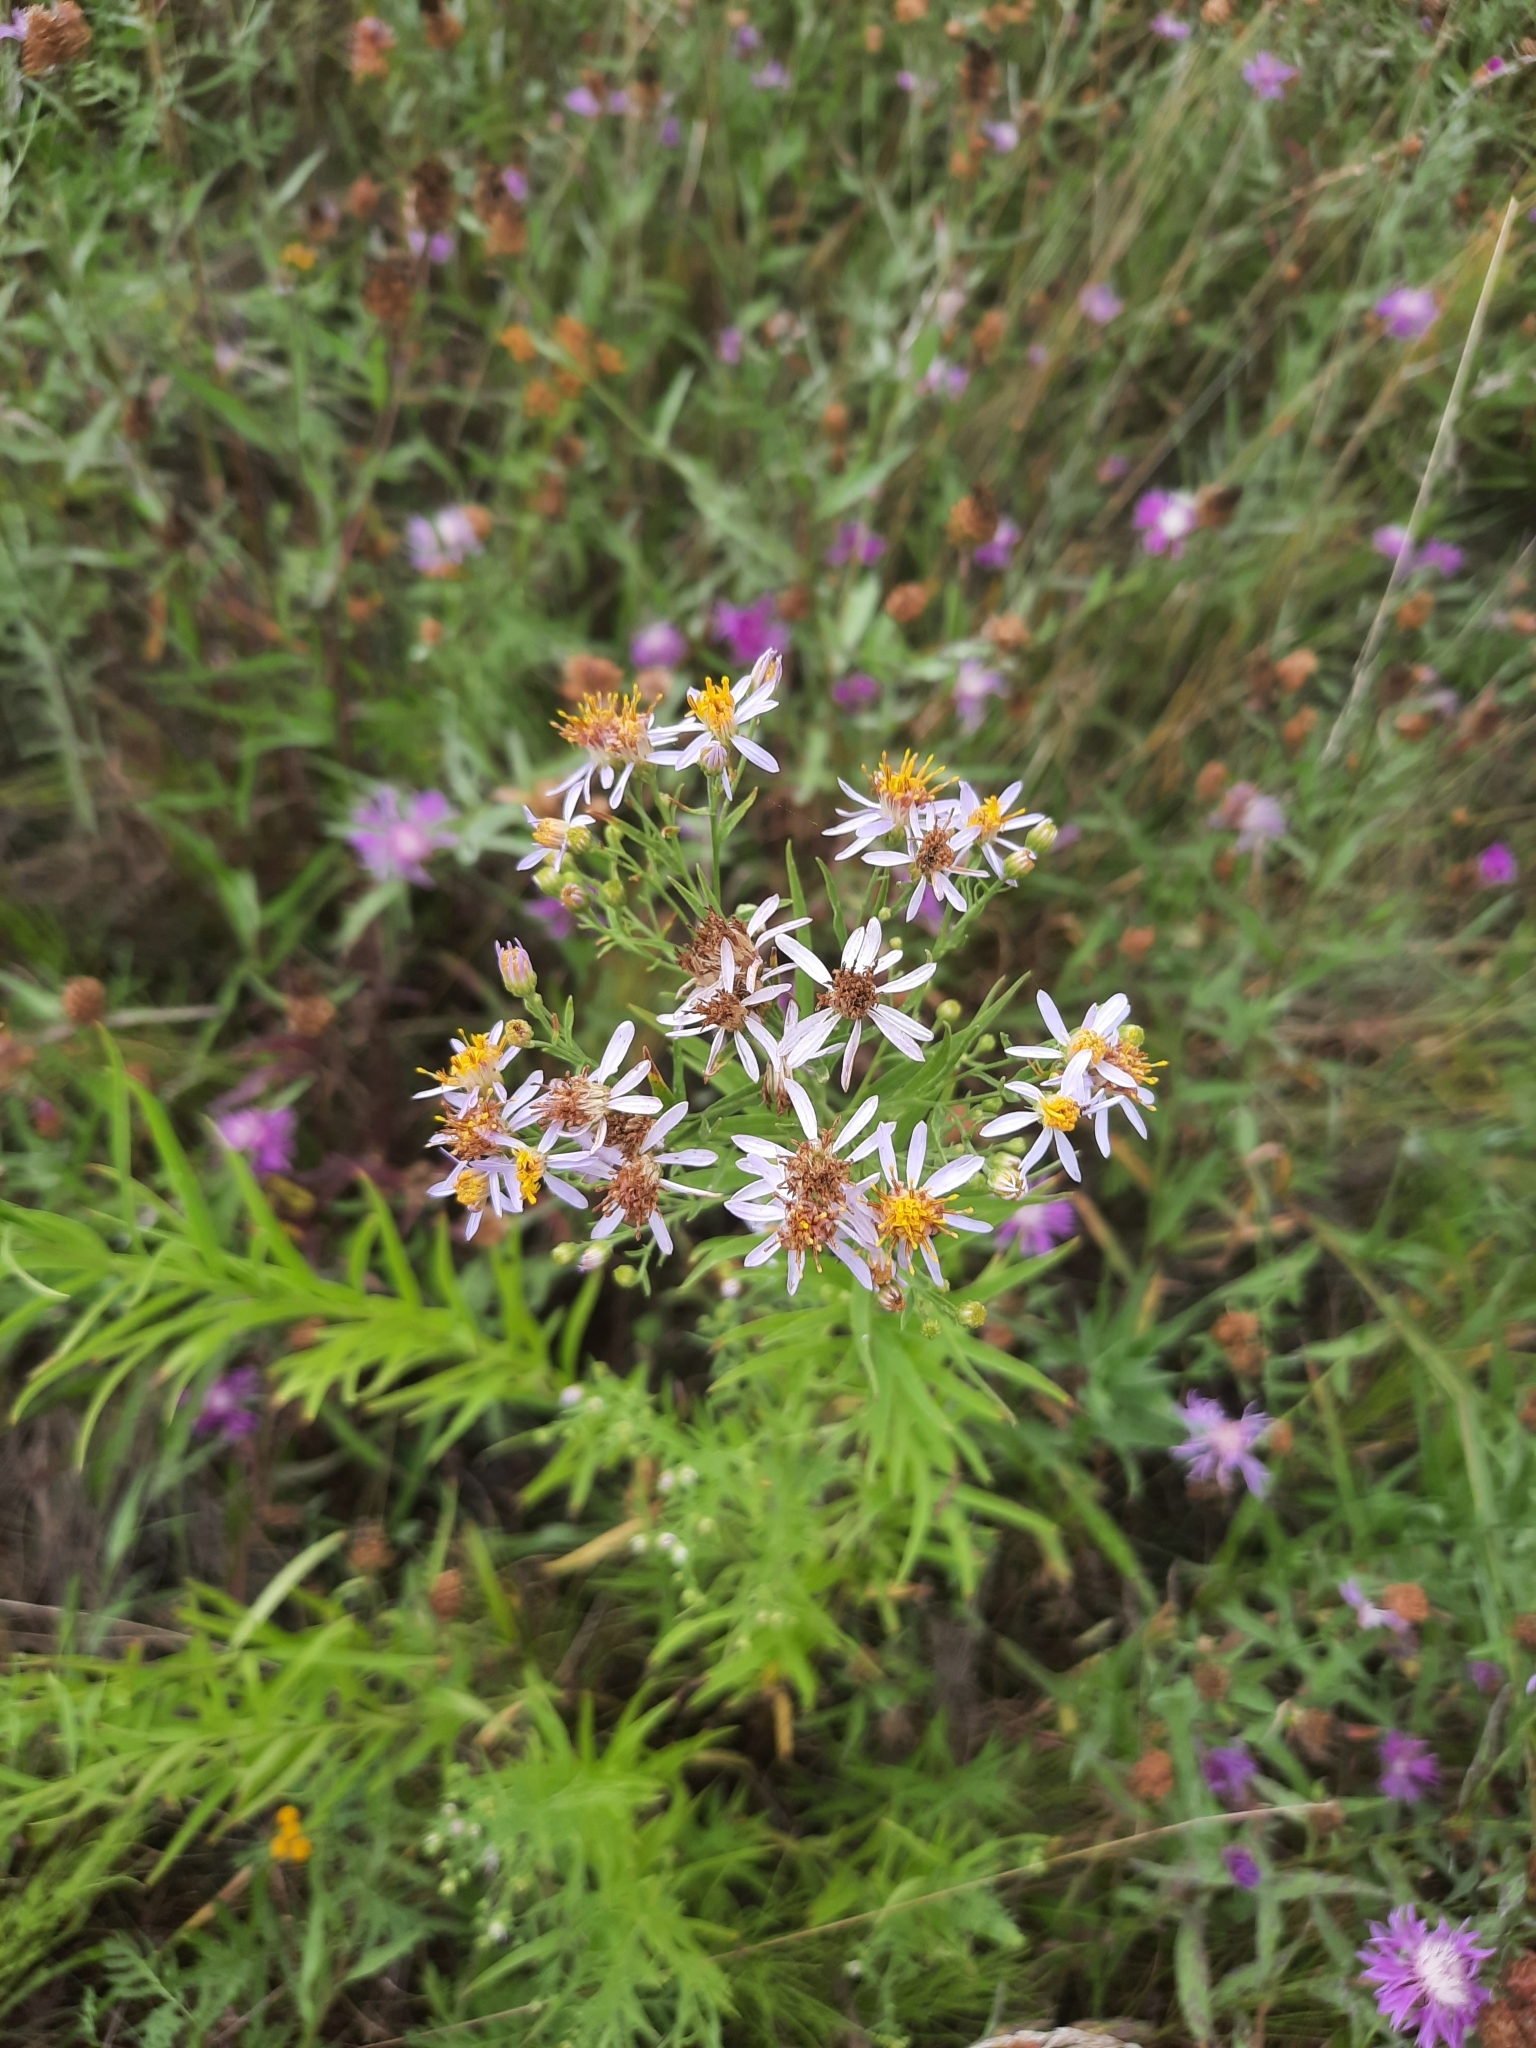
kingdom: Plantae
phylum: Tracheophyta
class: Magnoliopsida
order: Asterales
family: Asteraceae
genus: Galatella
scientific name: Galatella sedifolia
